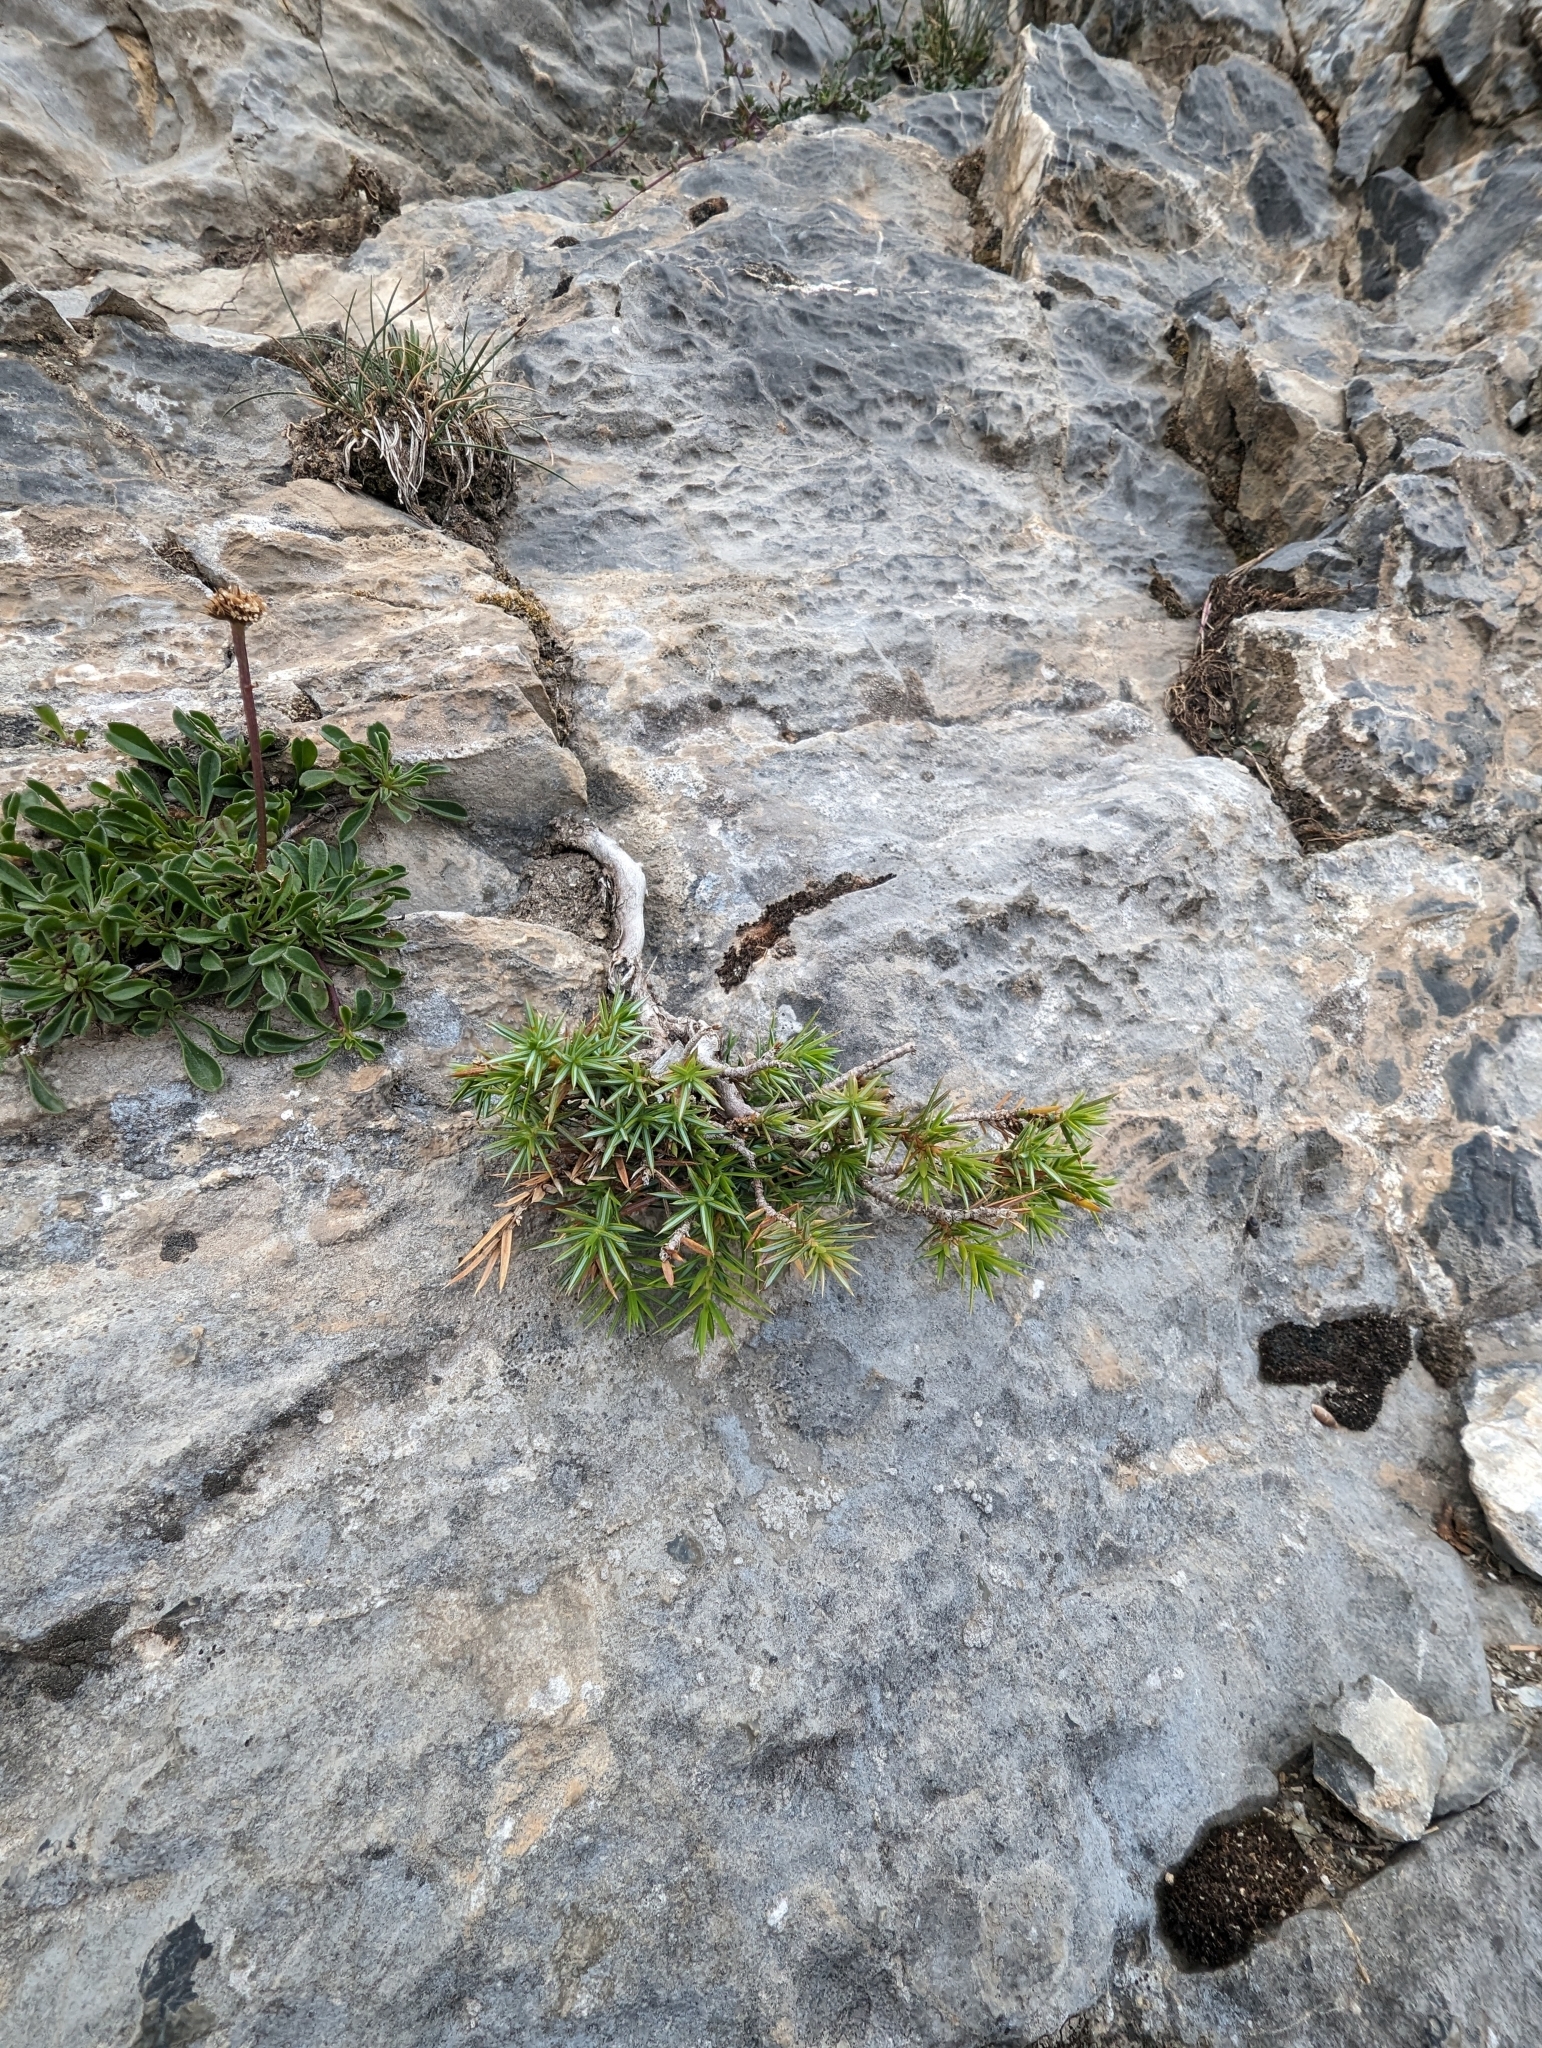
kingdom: Plantae
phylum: Tracheophyta
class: Pinopsida
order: Pinales
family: Cupressaceae
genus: Juniperus
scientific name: Juniperus communis
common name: Common juniper
